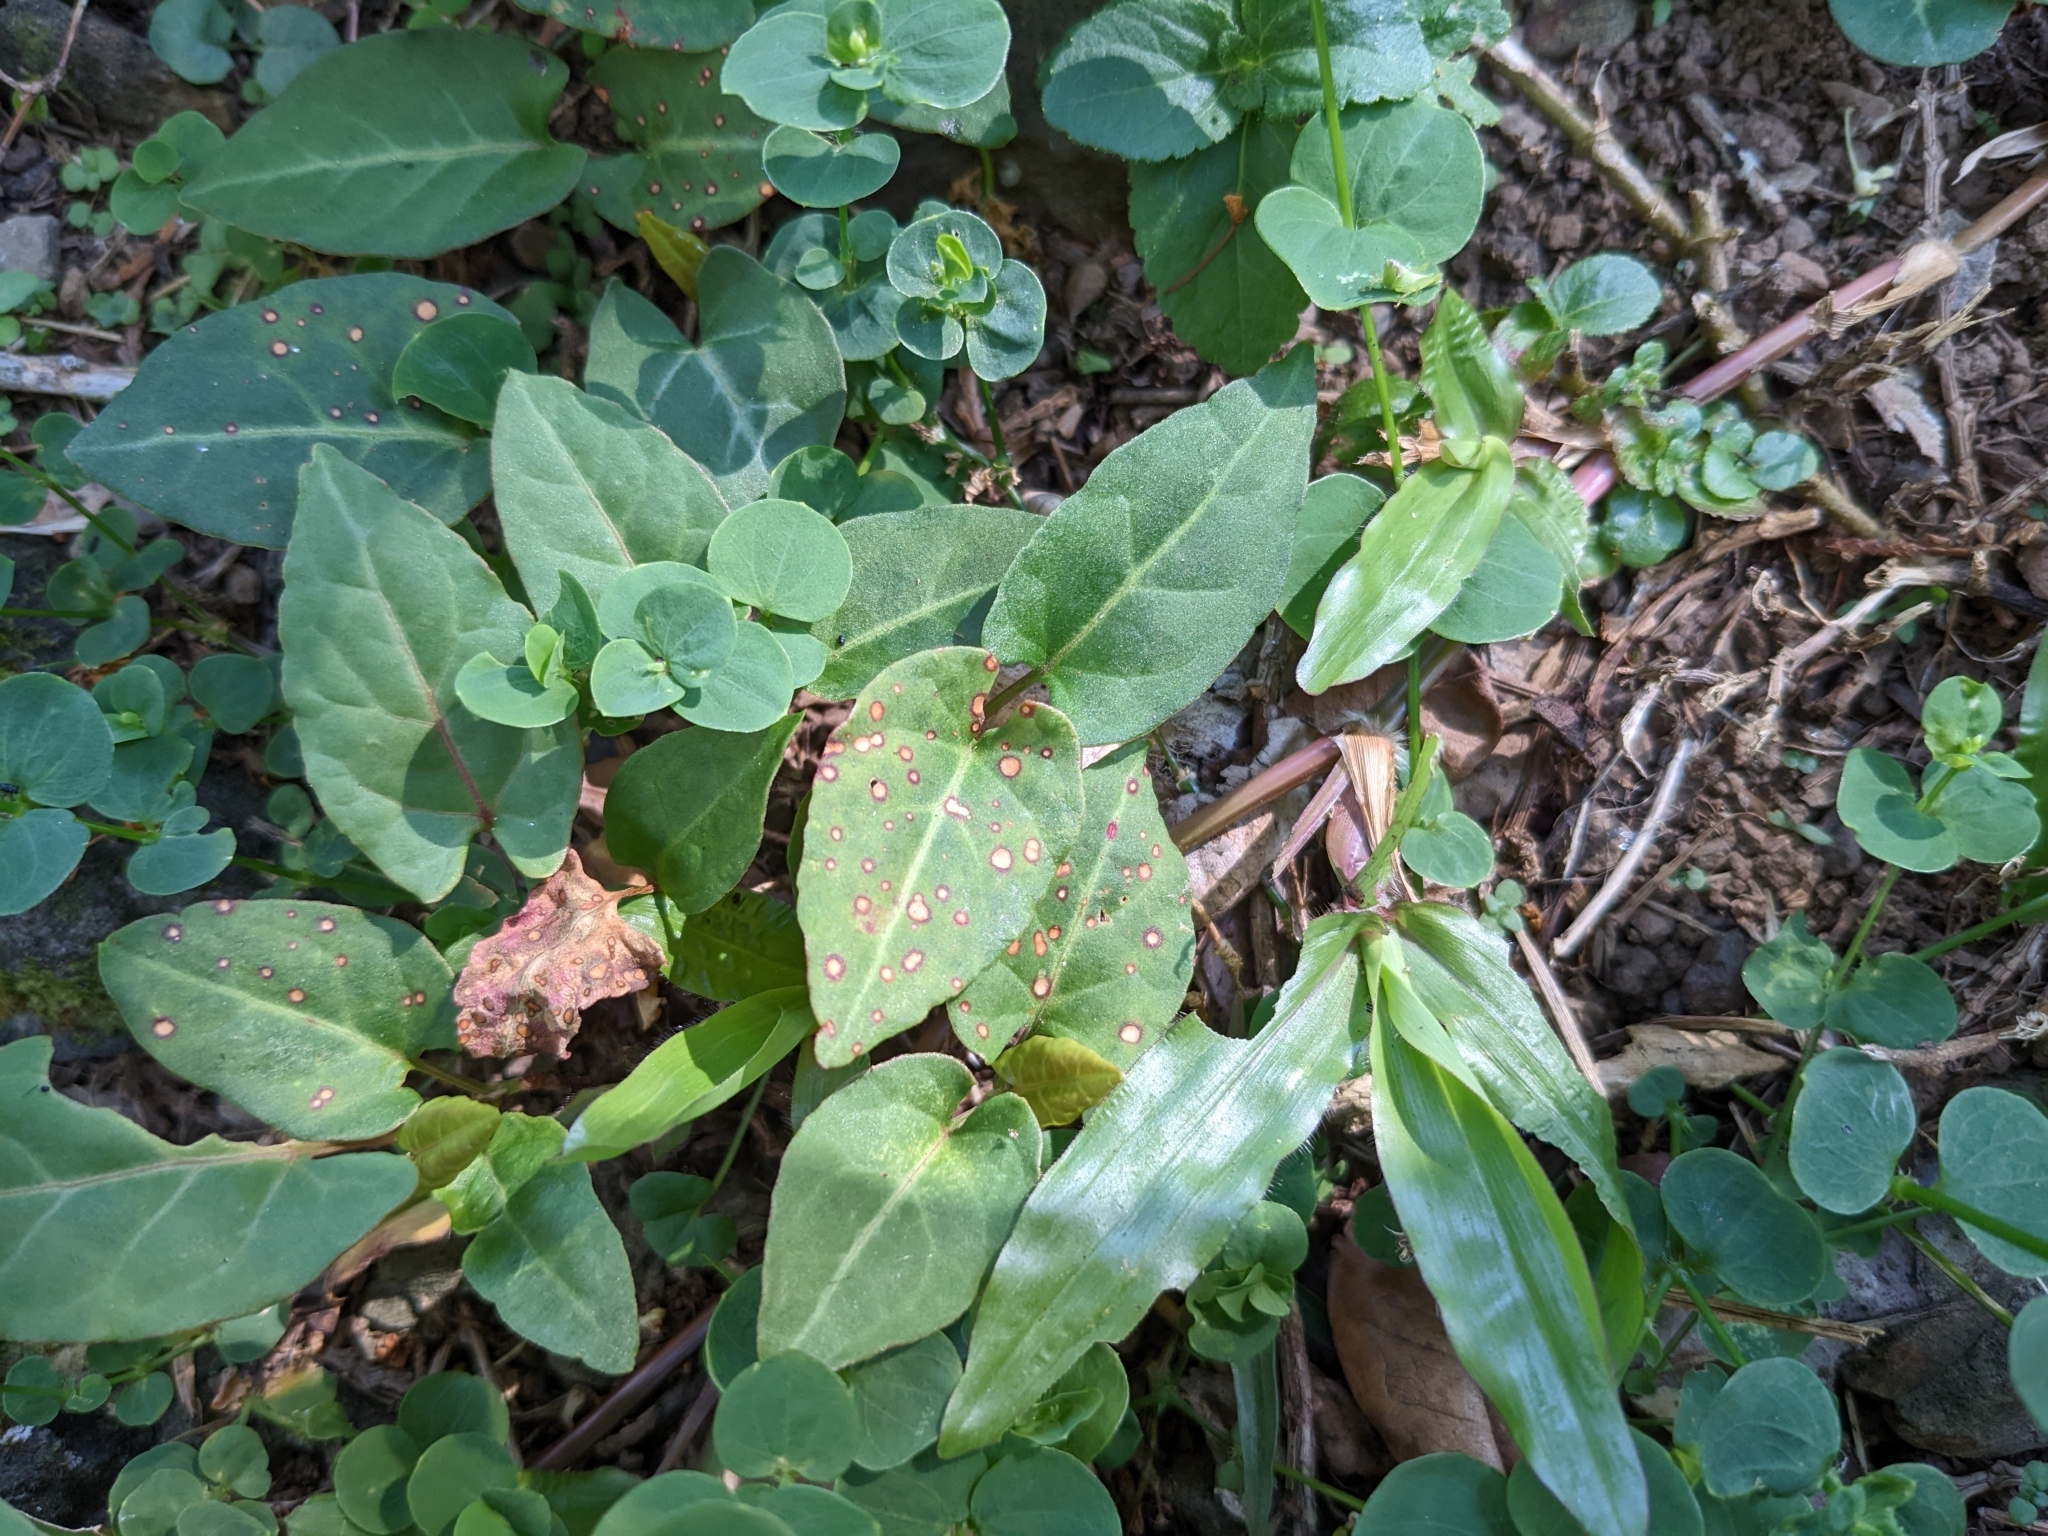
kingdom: Plantae
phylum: Tracheophyta
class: Magnoliopsida
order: Caryophyllales
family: Polygonaceae
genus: Reynoutria
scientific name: Reynoutria multiflora
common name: Chinese fleeceflower
